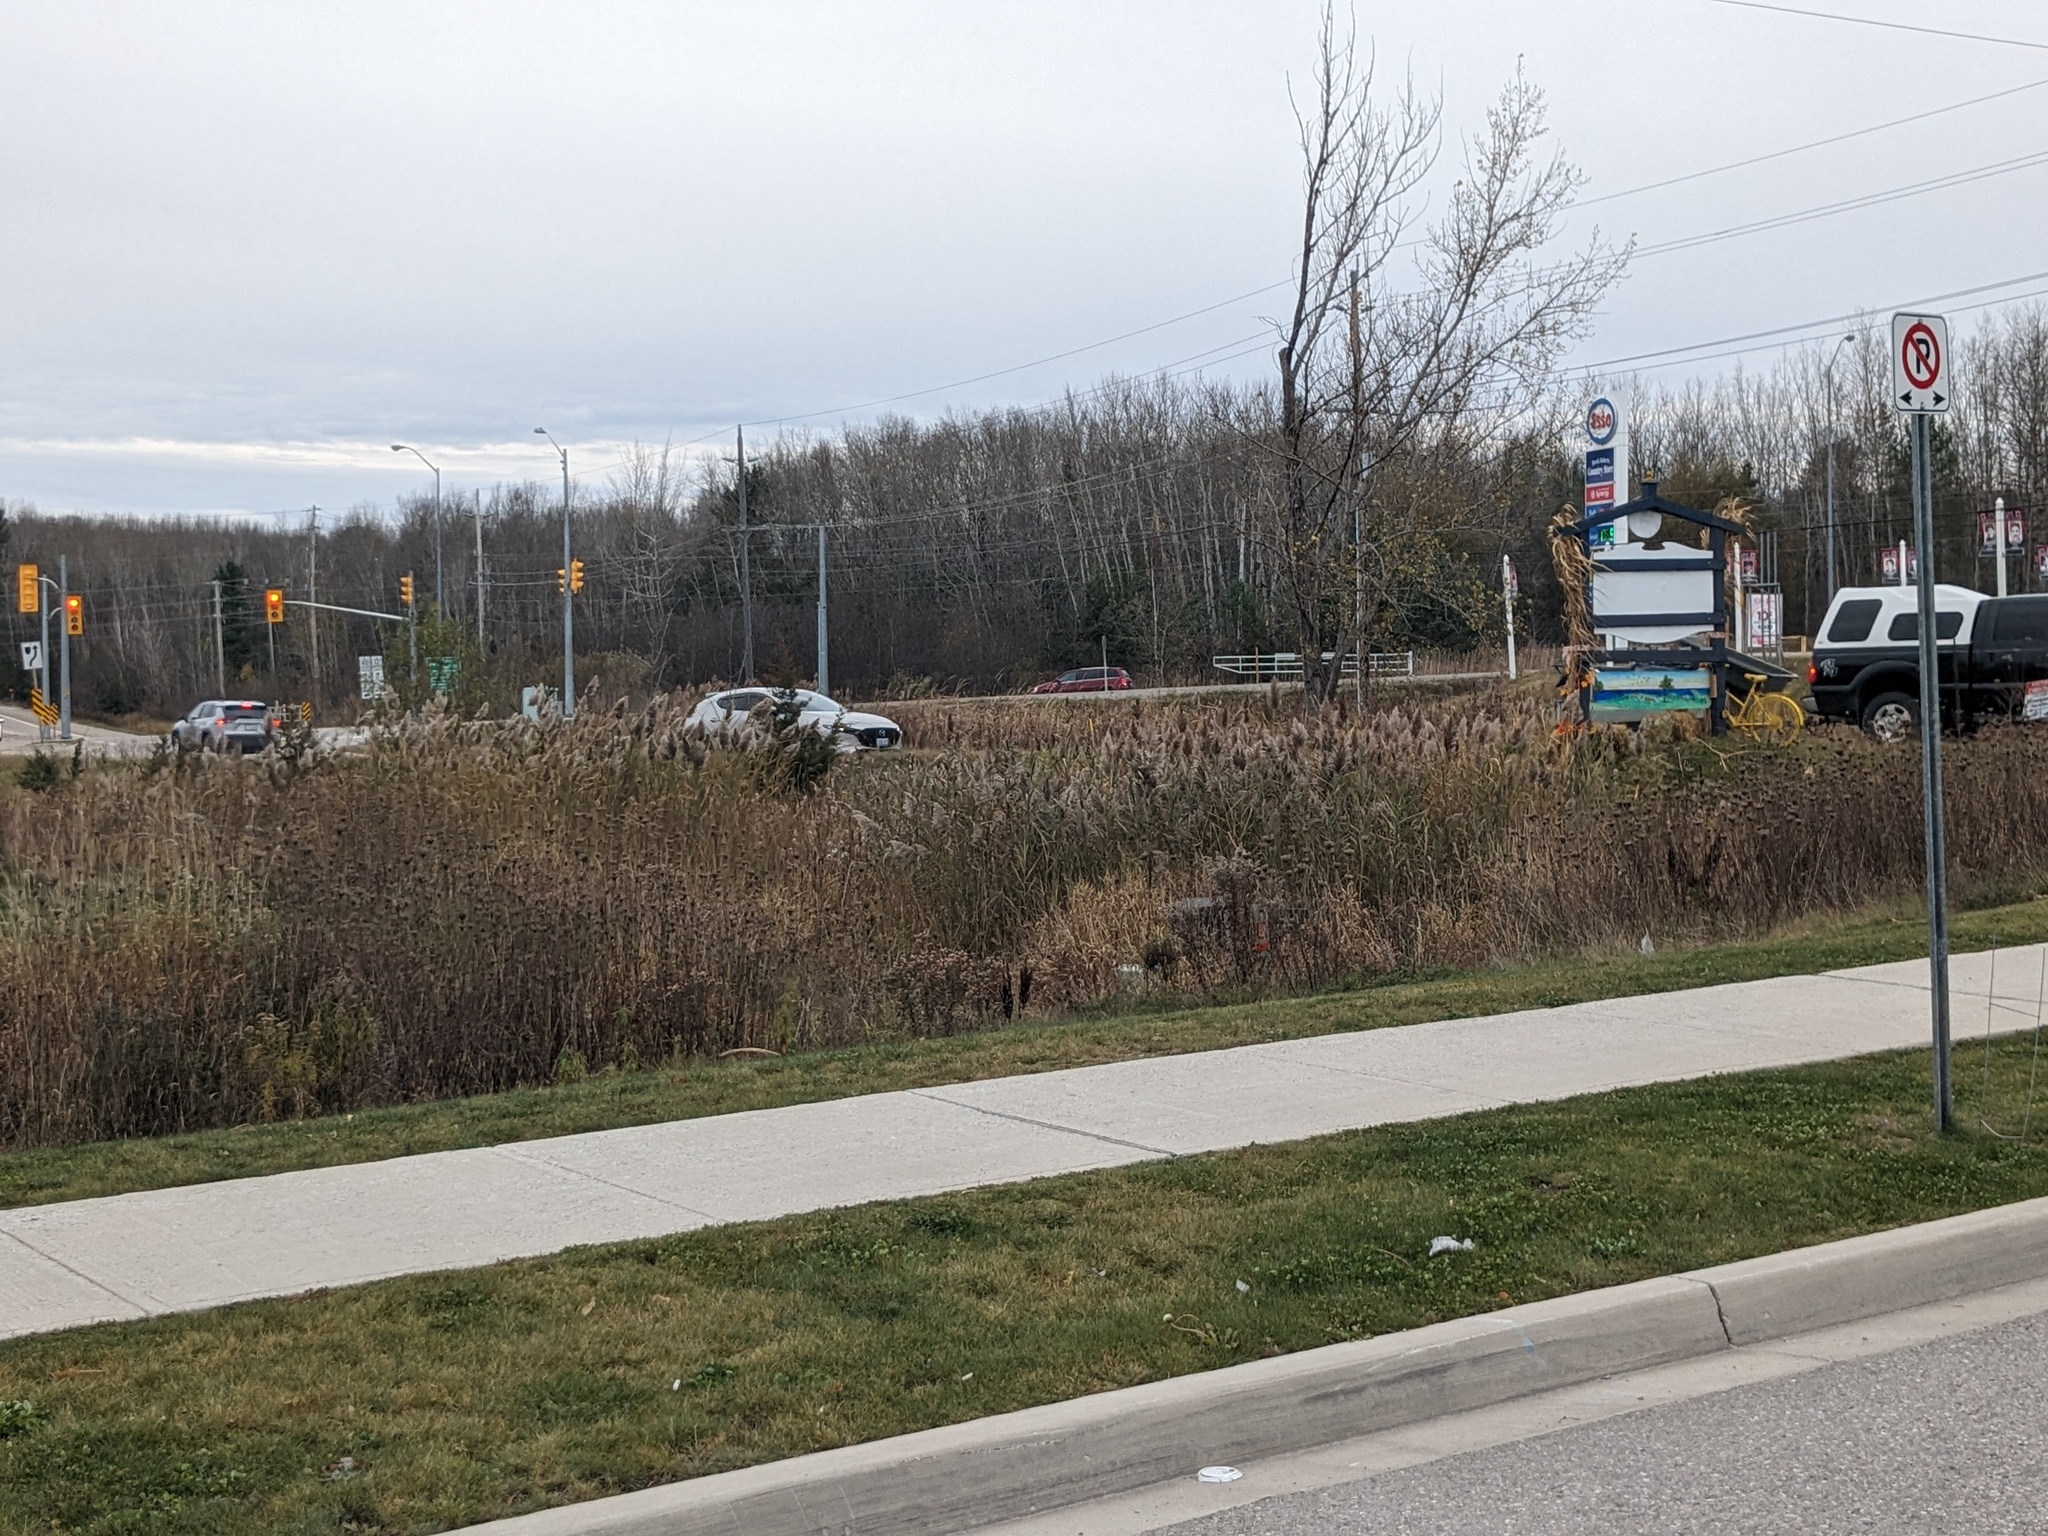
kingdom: Plantae
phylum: Tracheophyta
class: Liliopsida
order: Poales
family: Poaceae
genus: Phragmites
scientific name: Phragmites australis
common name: Common reed
